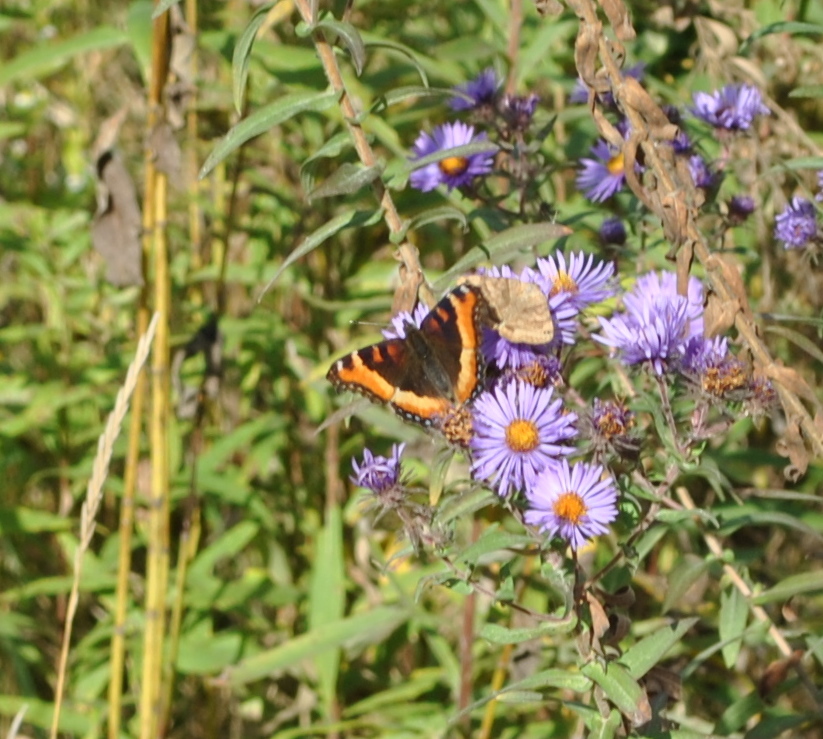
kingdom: Animalia
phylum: Arthropoda
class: Insecta
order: Lepidoptera
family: Nymphalidae
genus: Aglais
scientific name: Aglais milberti
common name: Milbert's tortoiseshell
